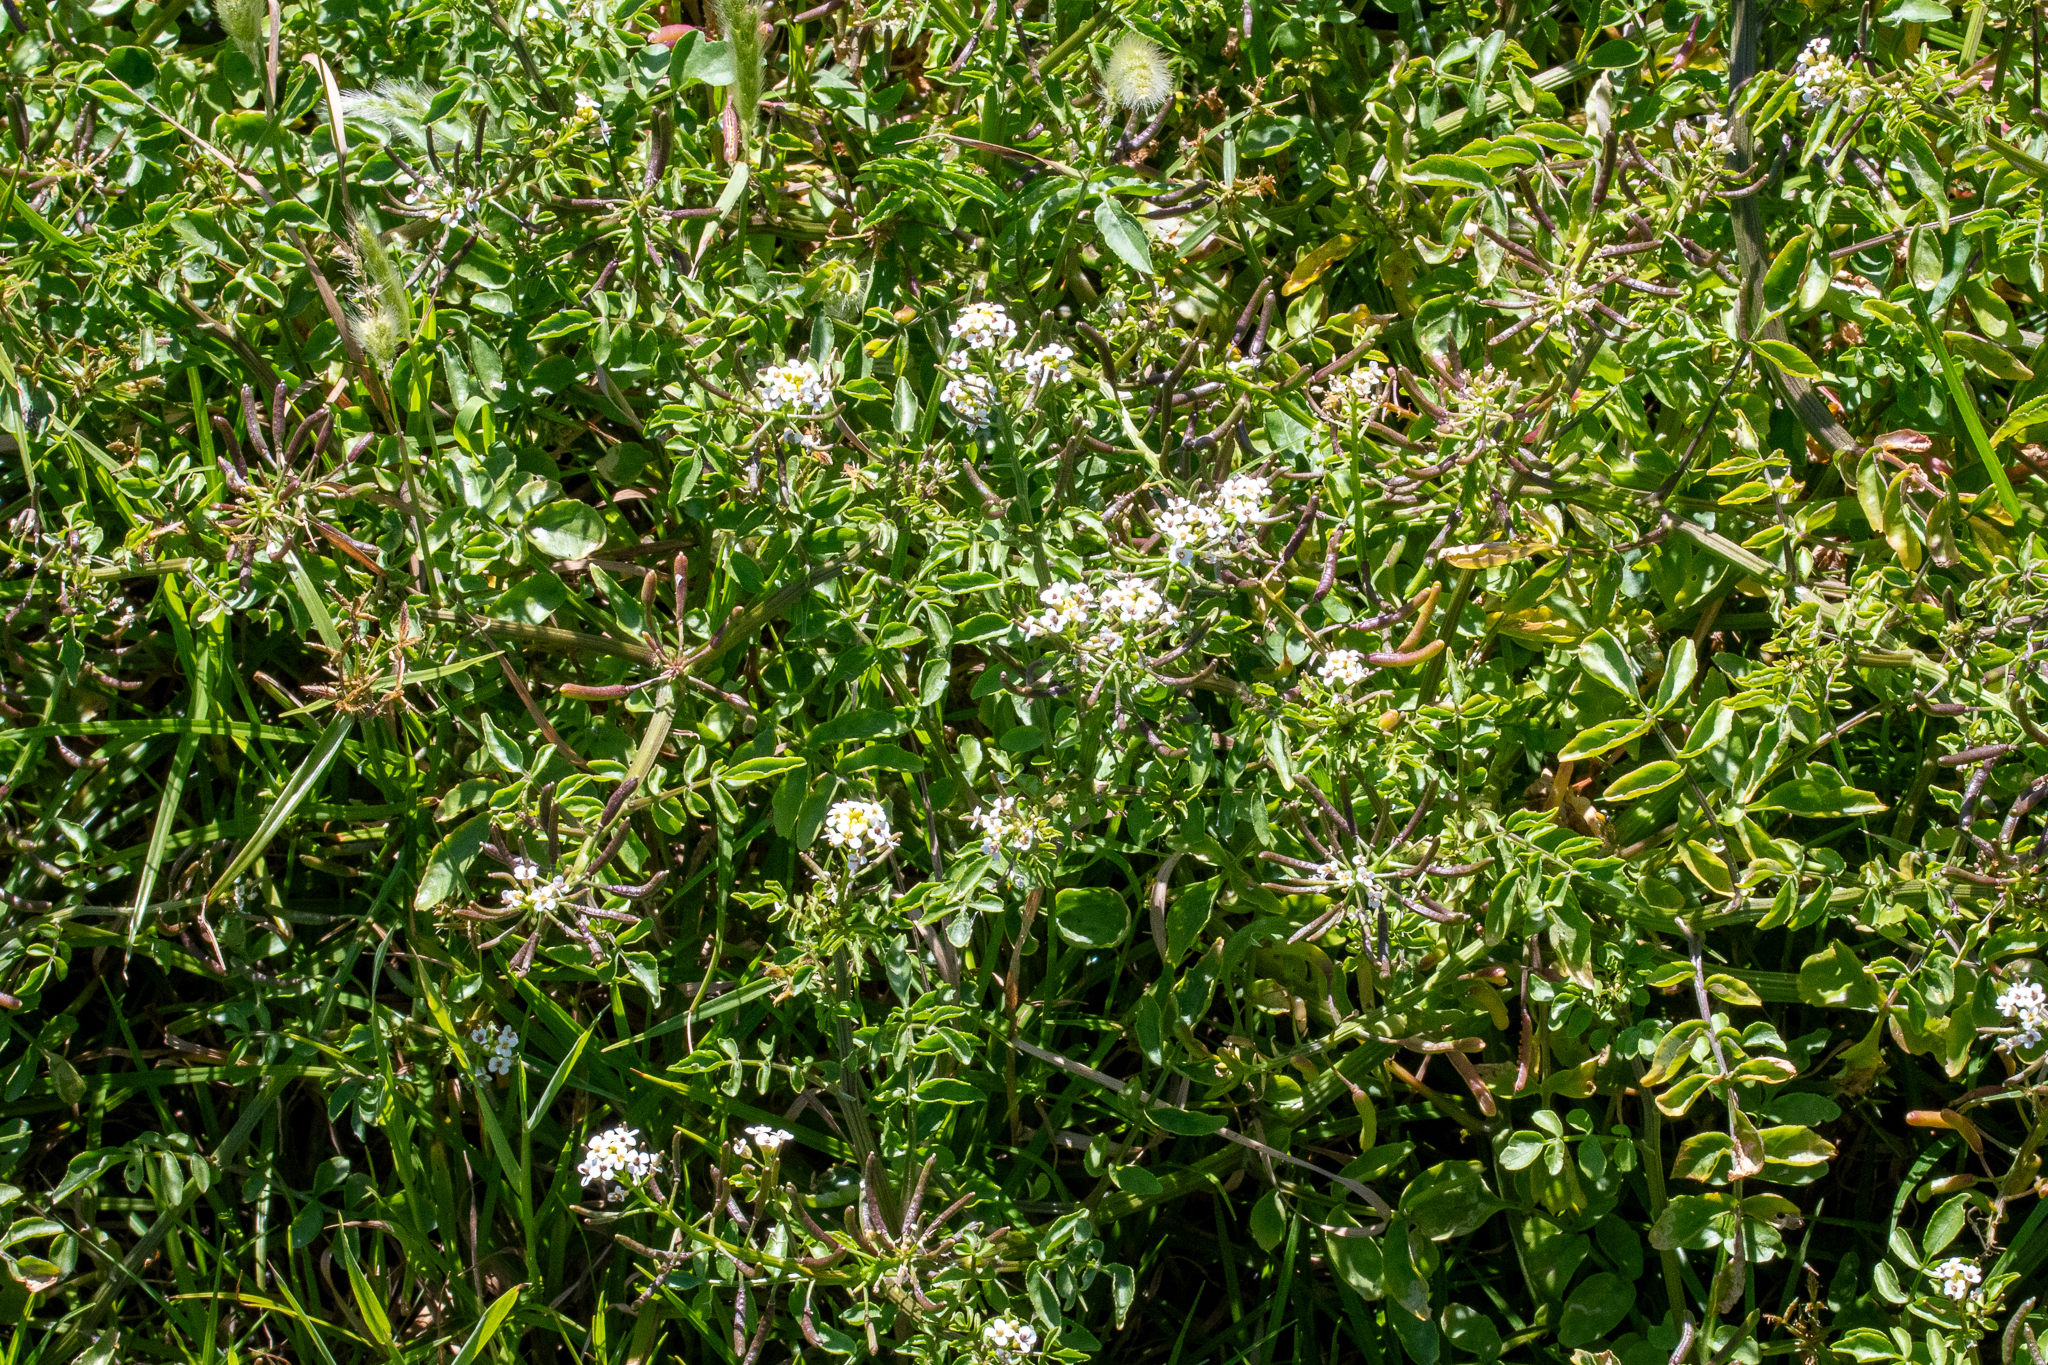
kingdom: Plantae
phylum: Tracheophyta
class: Magnoliopsida
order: Brassicales
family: Brassicaceae
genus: Nasturtium
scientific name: Nasturtium officinale
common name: Watercress
